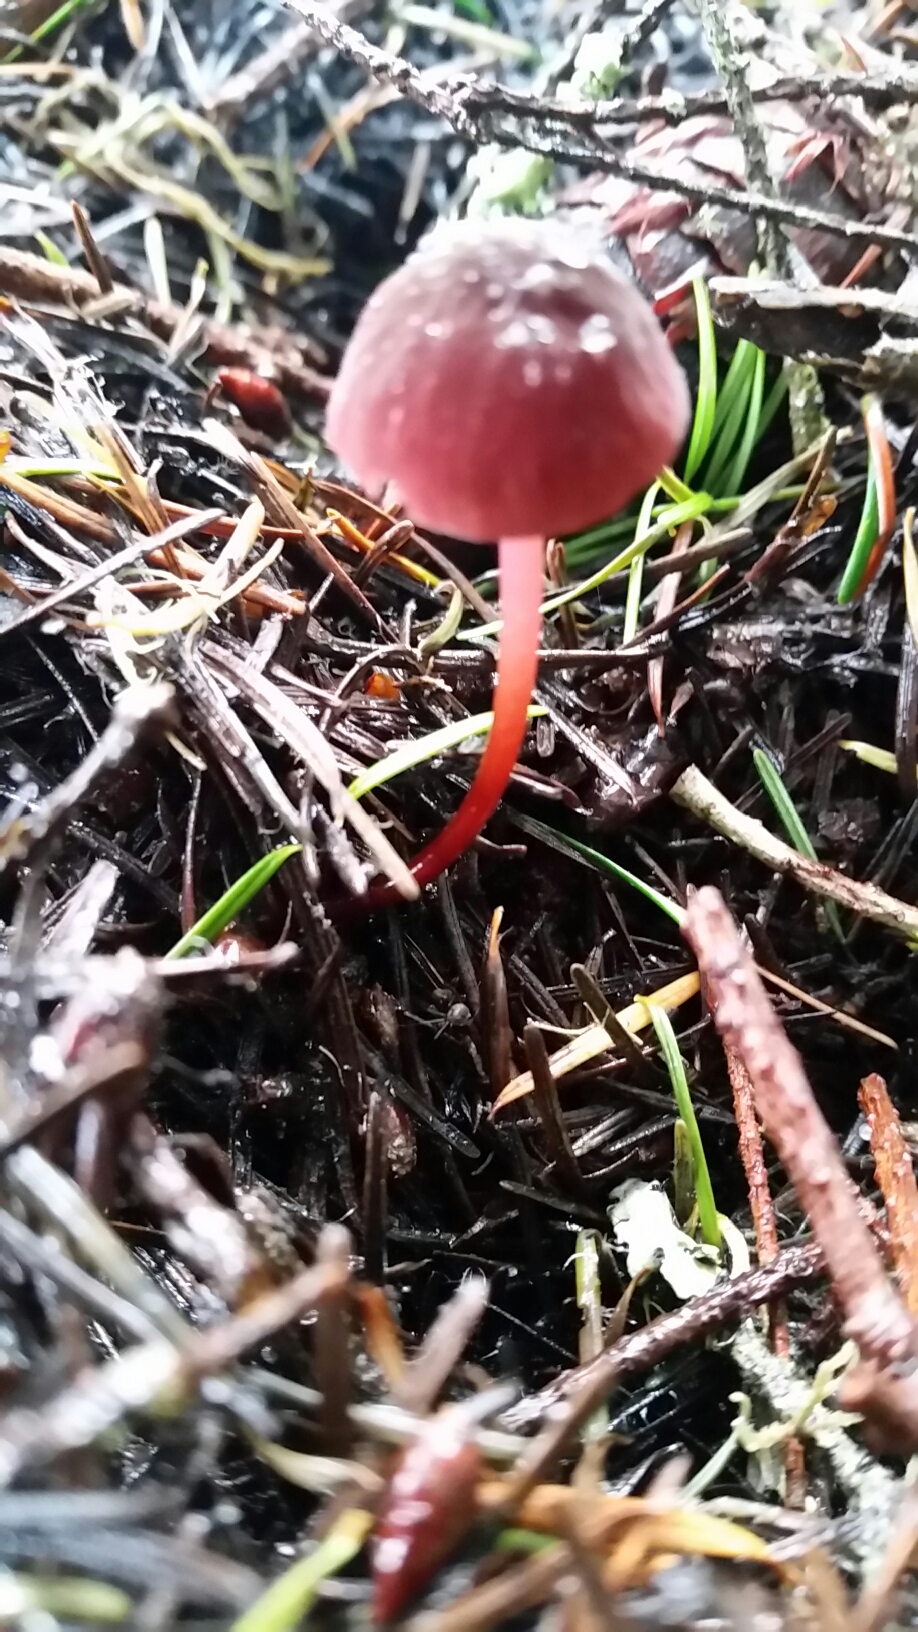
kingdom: Fungi
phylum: Basidiomycota
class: Agaricomycetes
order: Agaricales
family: Marasmiaceae
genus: Marasmius
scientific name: Marasmius plicatulus
